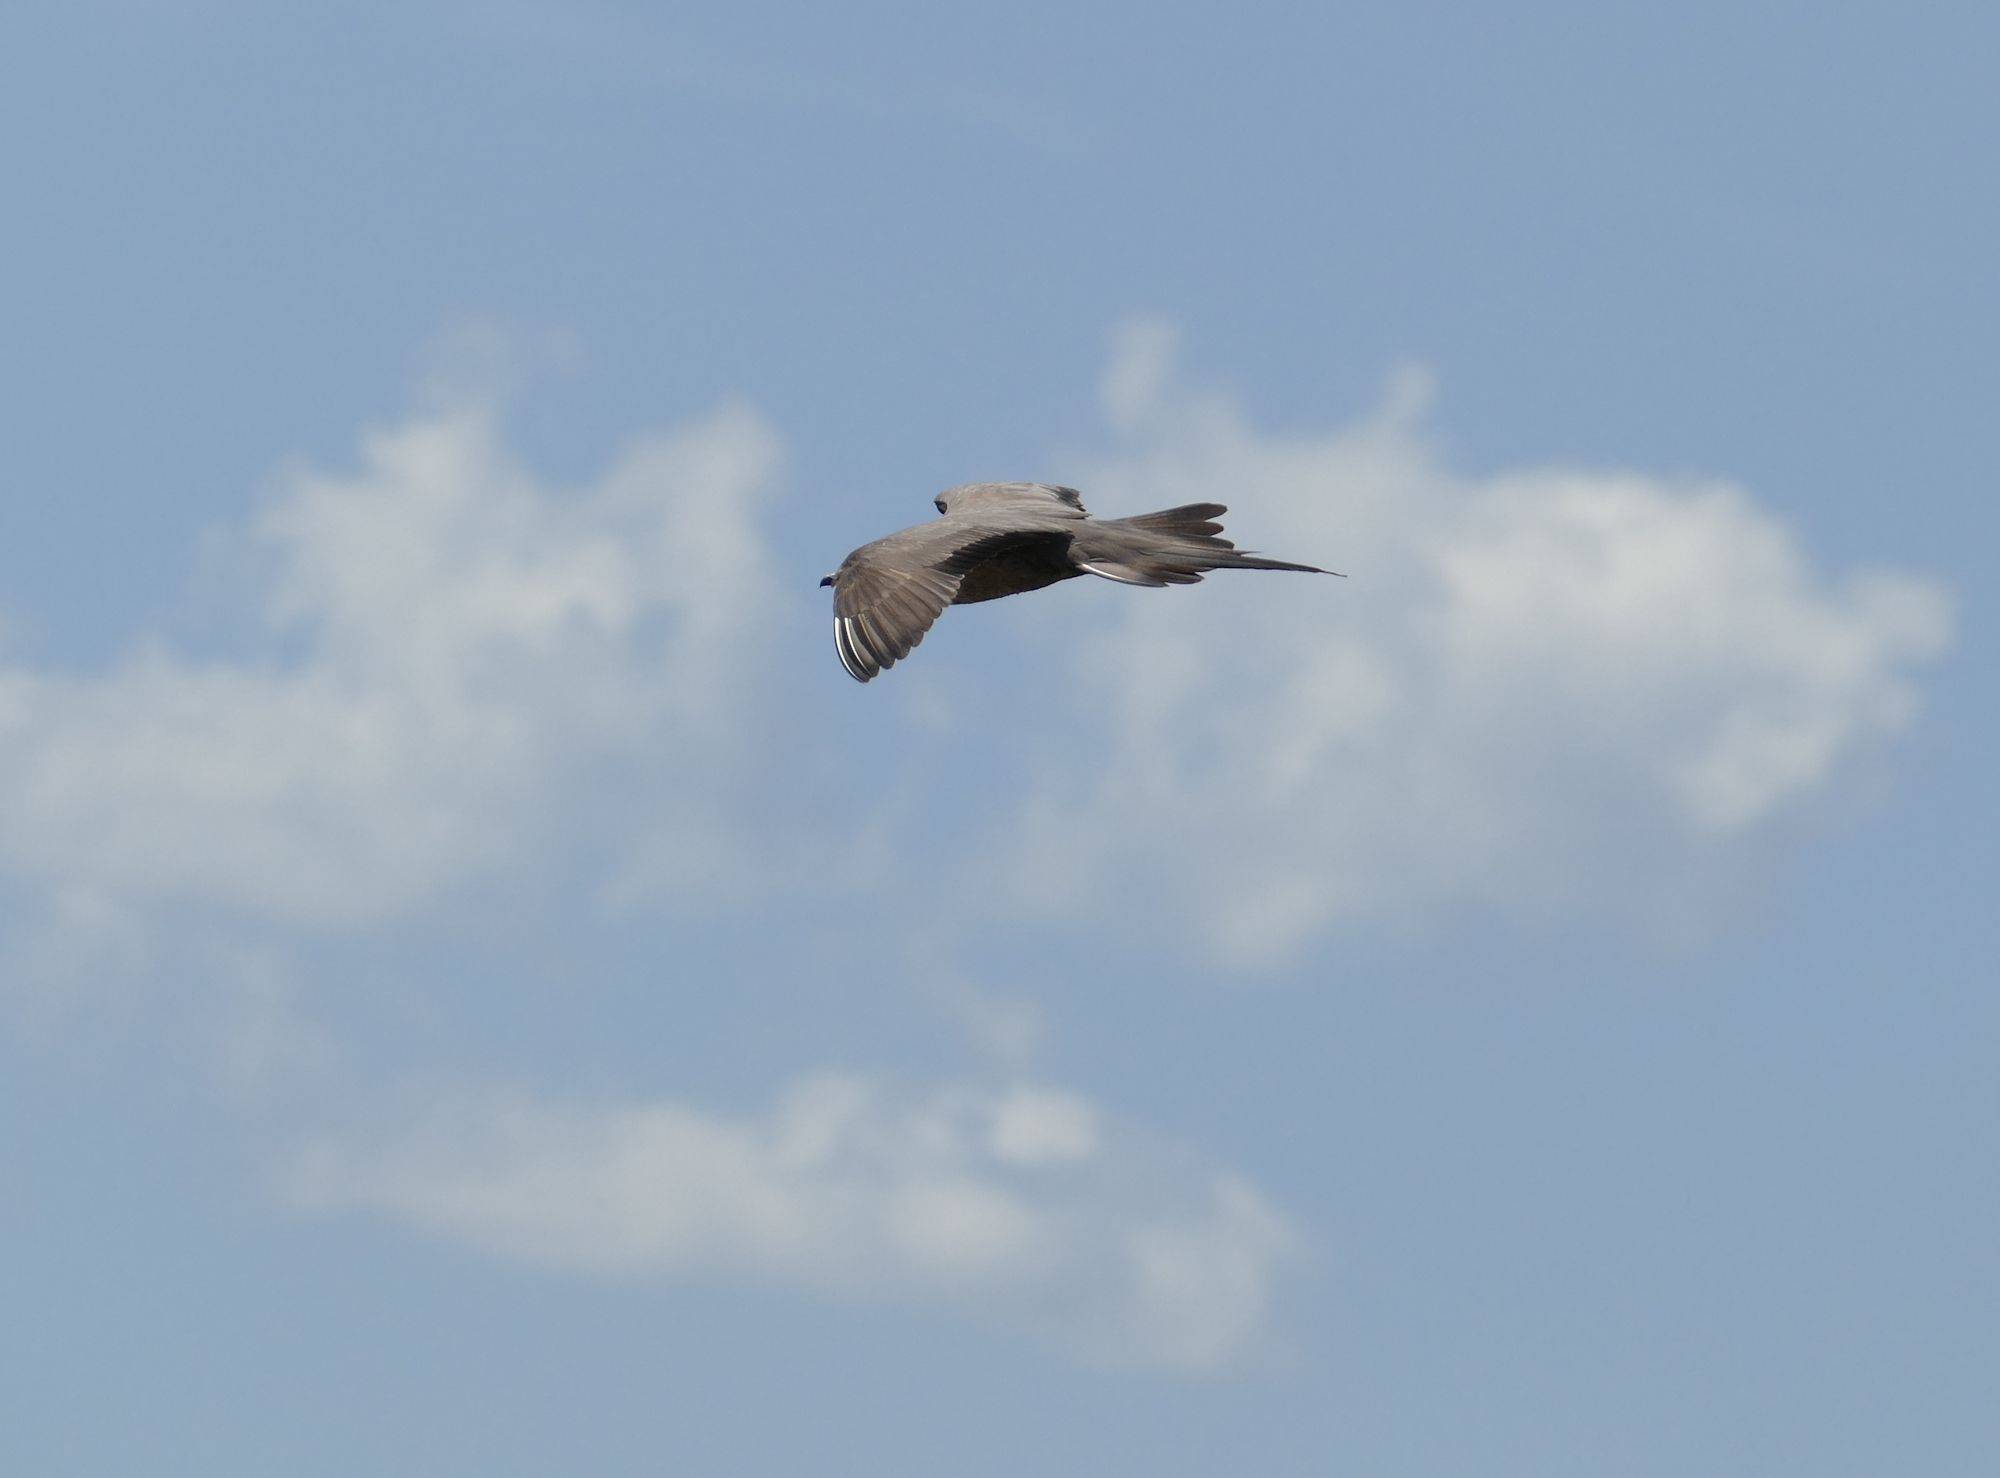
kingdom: Animalia
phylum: Chordata
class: Aves
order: Charadriiformes
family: Stercorariidae
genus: Stercorarius
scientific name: Stercorarius longicaudus
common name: Long-tailed jaeger
